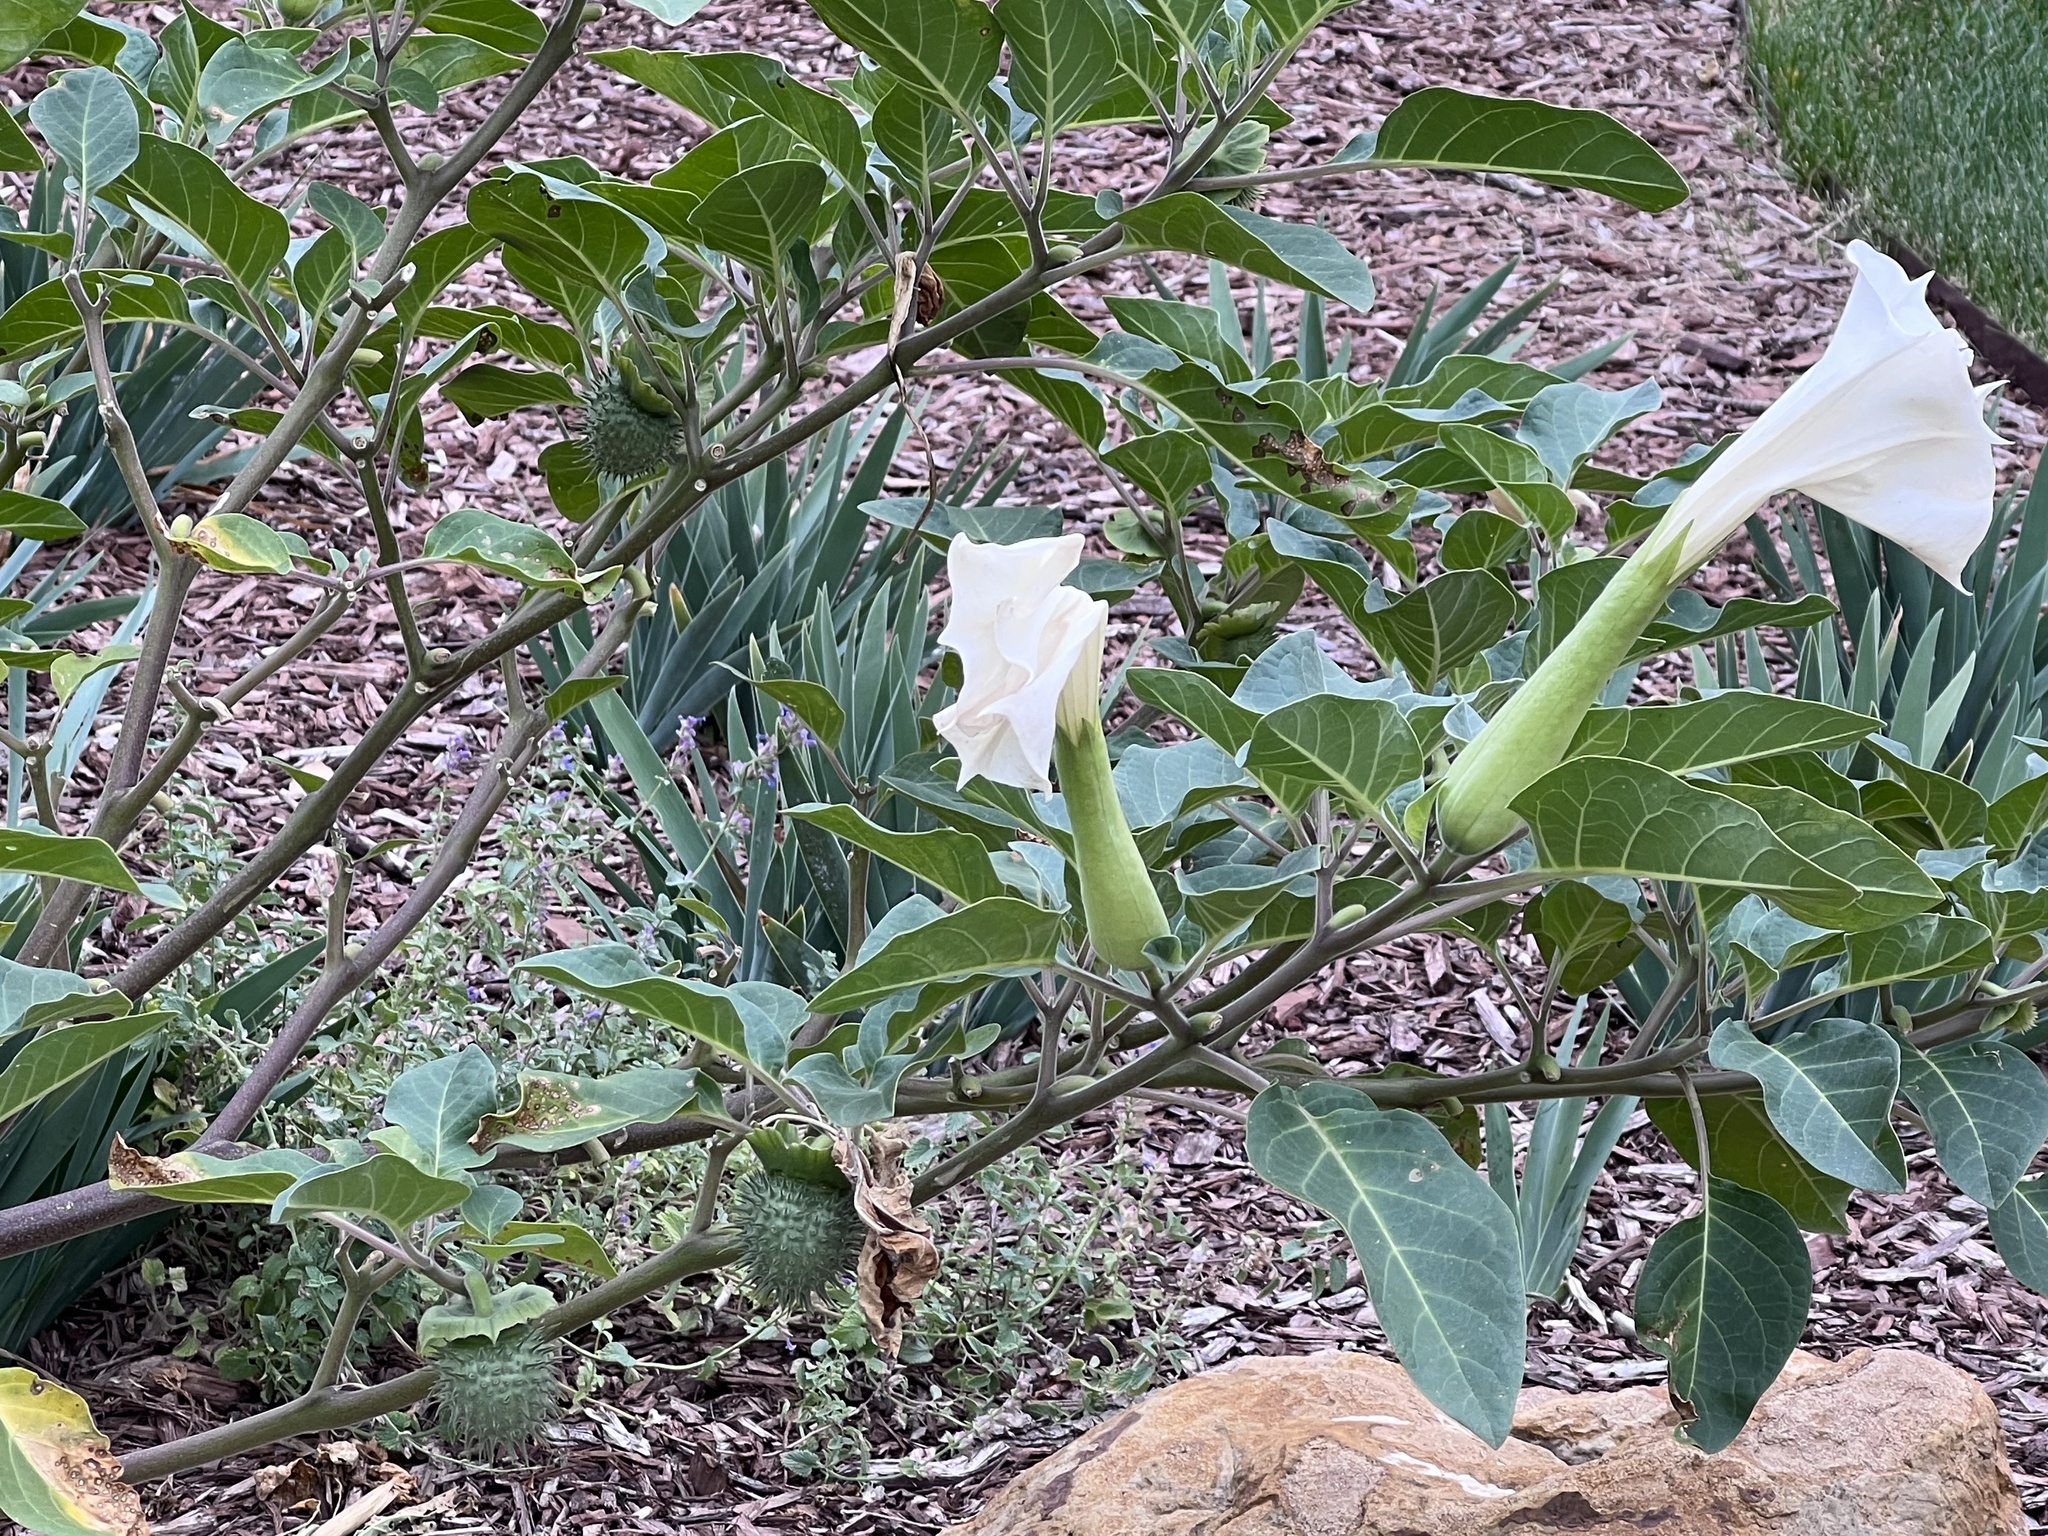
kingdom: Plantae
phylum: Tracheophyta
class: Magnoliopsida
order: Solanales
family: Solanaceae
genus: Datura
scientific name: Datura wrightii
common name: Sacred thorn-apple
